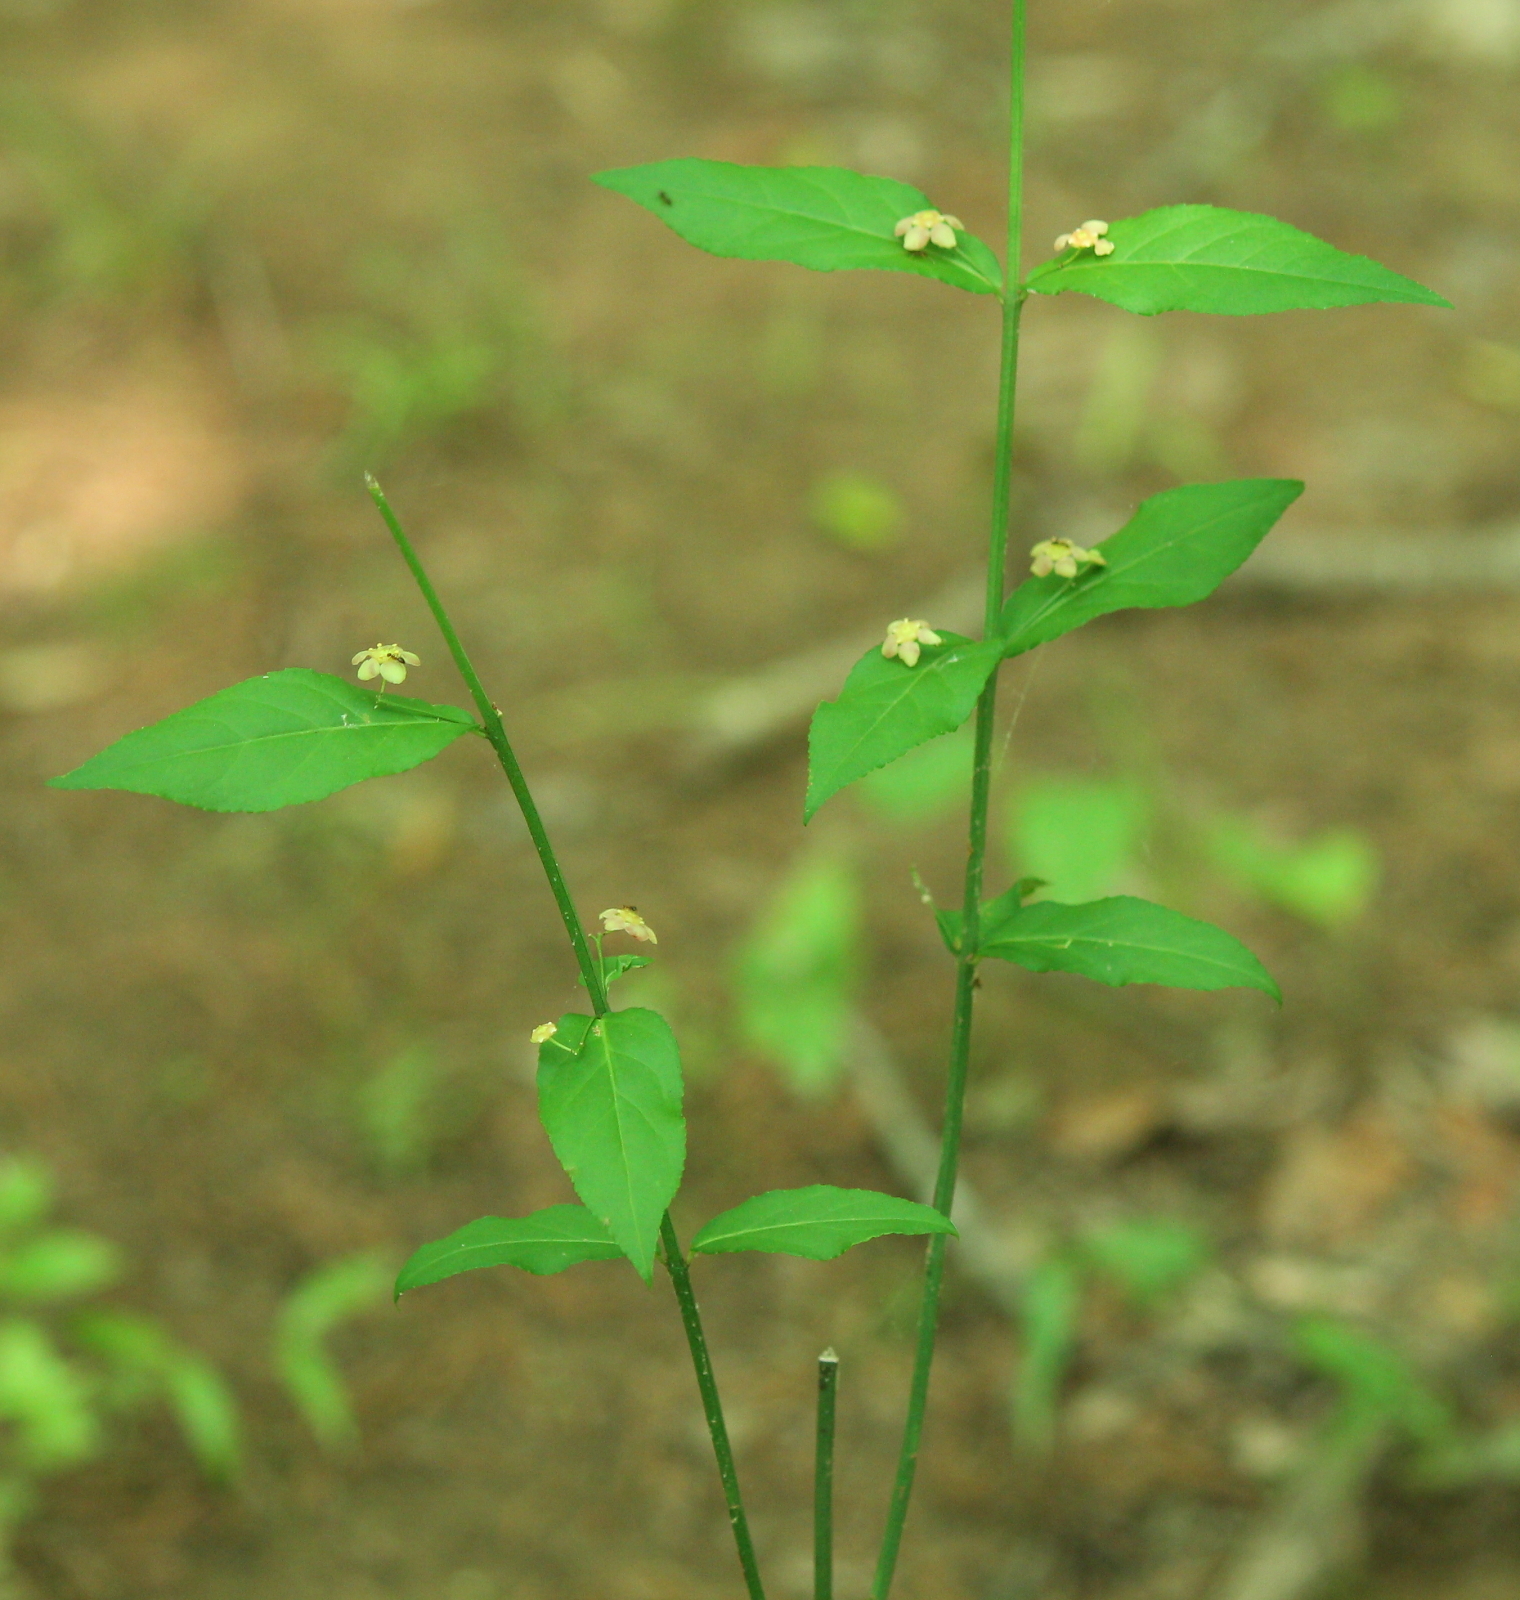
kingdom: Plantae
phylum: Tracheophyta
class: Magnoliopsida
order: Celastrales
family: Celastraceae
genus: Euonymus
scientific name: Euonymus americanus
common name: Bursting-heart
